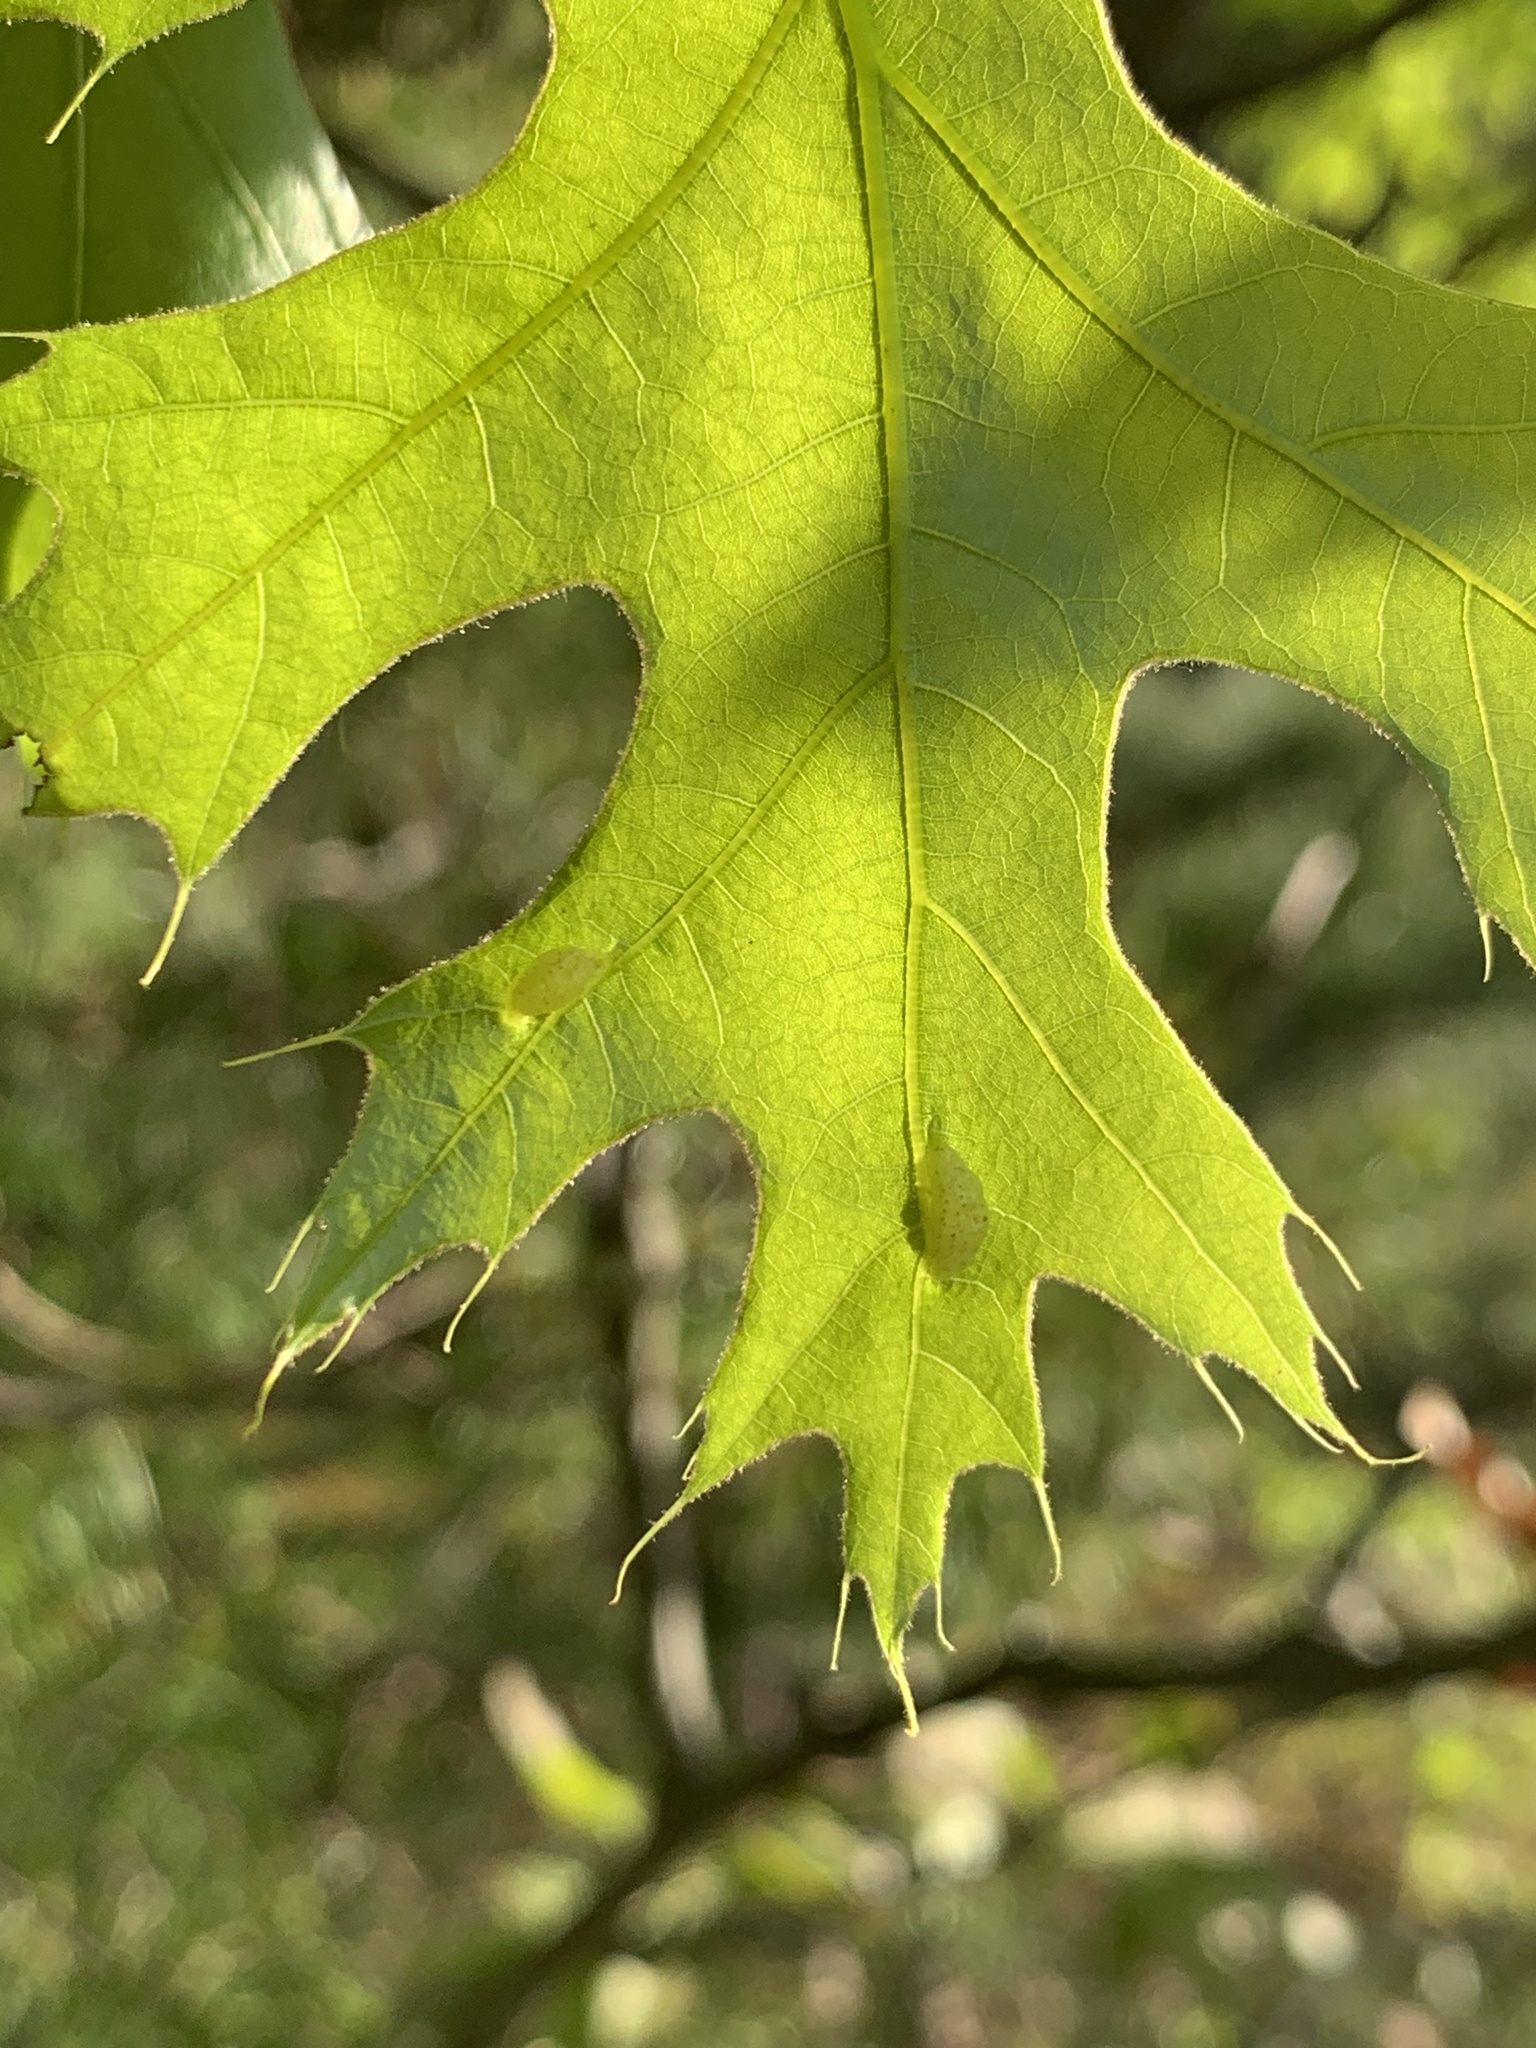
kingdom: Animalia
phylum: Arthropoda
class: Insecta
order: Diptera
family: Cecidomyiidae
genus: Macrodiplosis
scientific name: Macrodiplosis majalis
